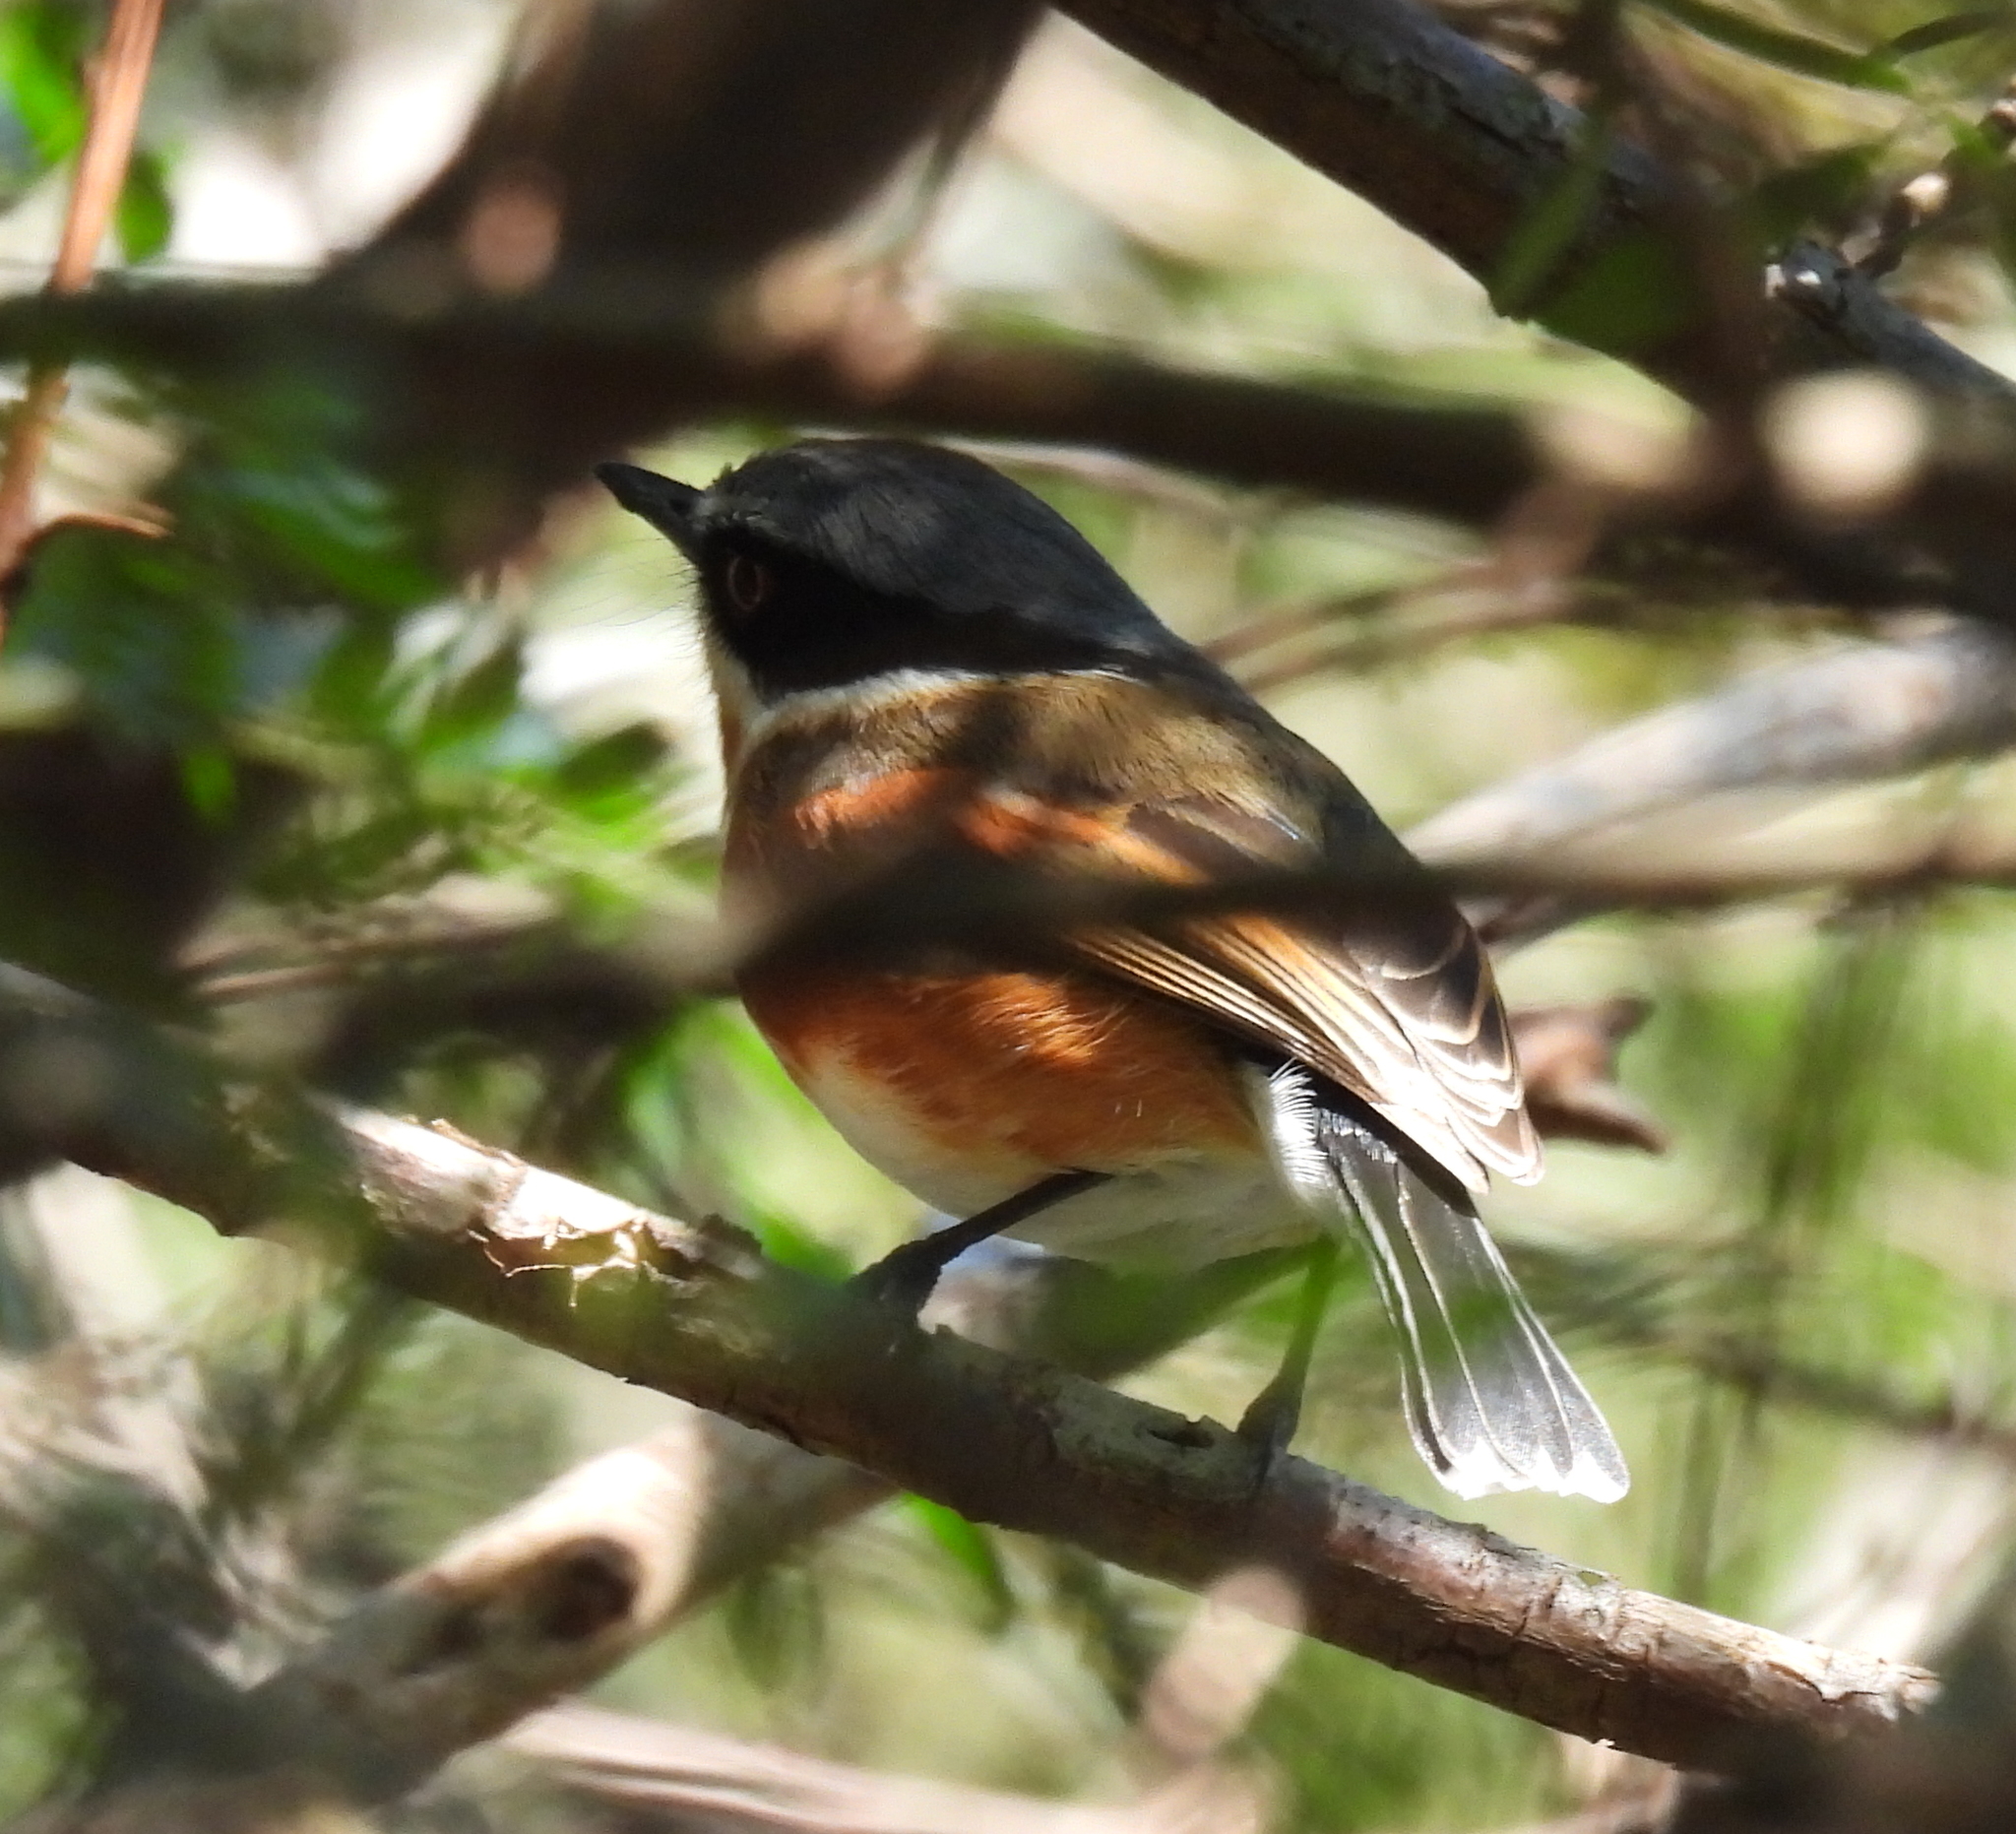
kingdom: Animalia
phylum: Chordata
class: Aves
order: Passeriformes
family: Platysteiridae
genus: Batis
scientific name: Batis capensis
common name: Cape batis
